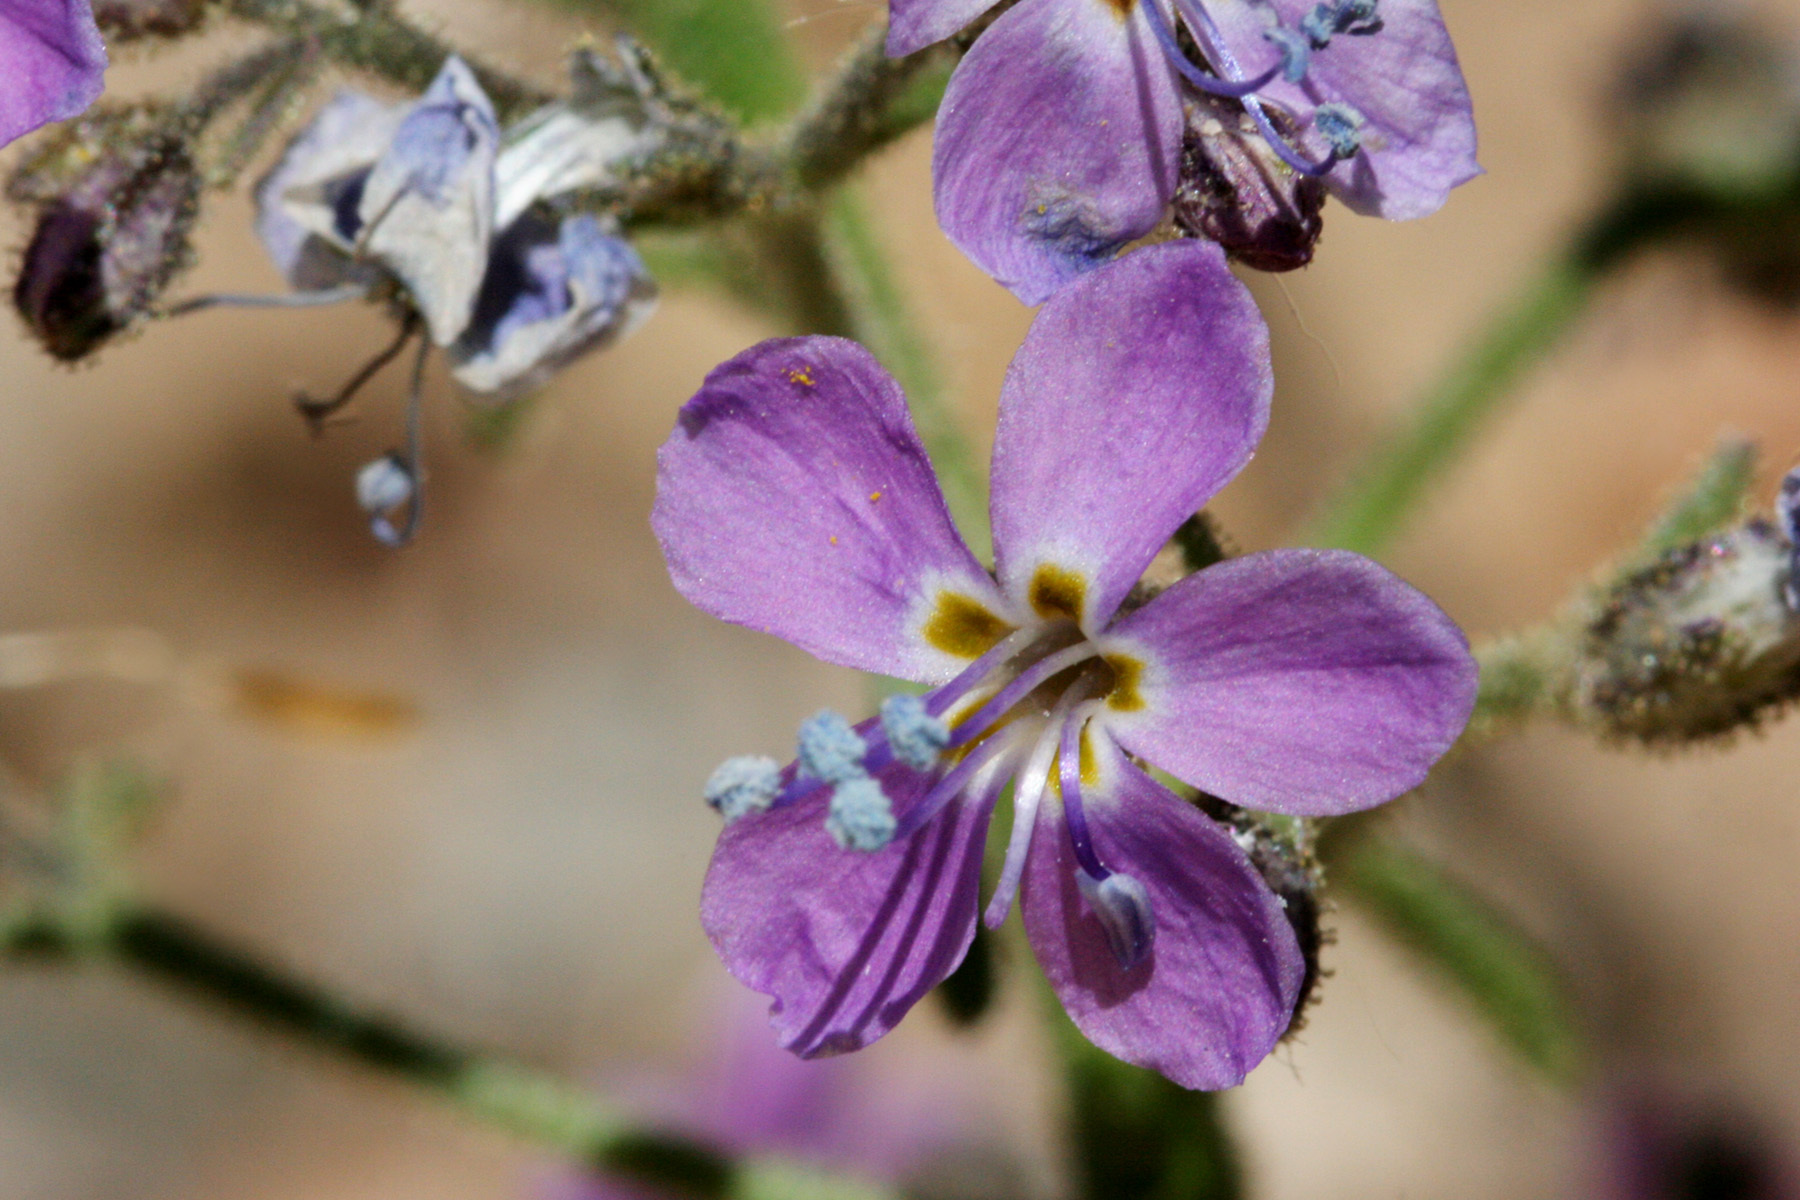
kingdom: Plantae
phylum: Tracheophyta
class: Magnoliopsida
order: Ericales
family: Polemoniaceae
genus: Aliciella
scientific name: Aliciella pinnatifida
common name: Sticky gilia
